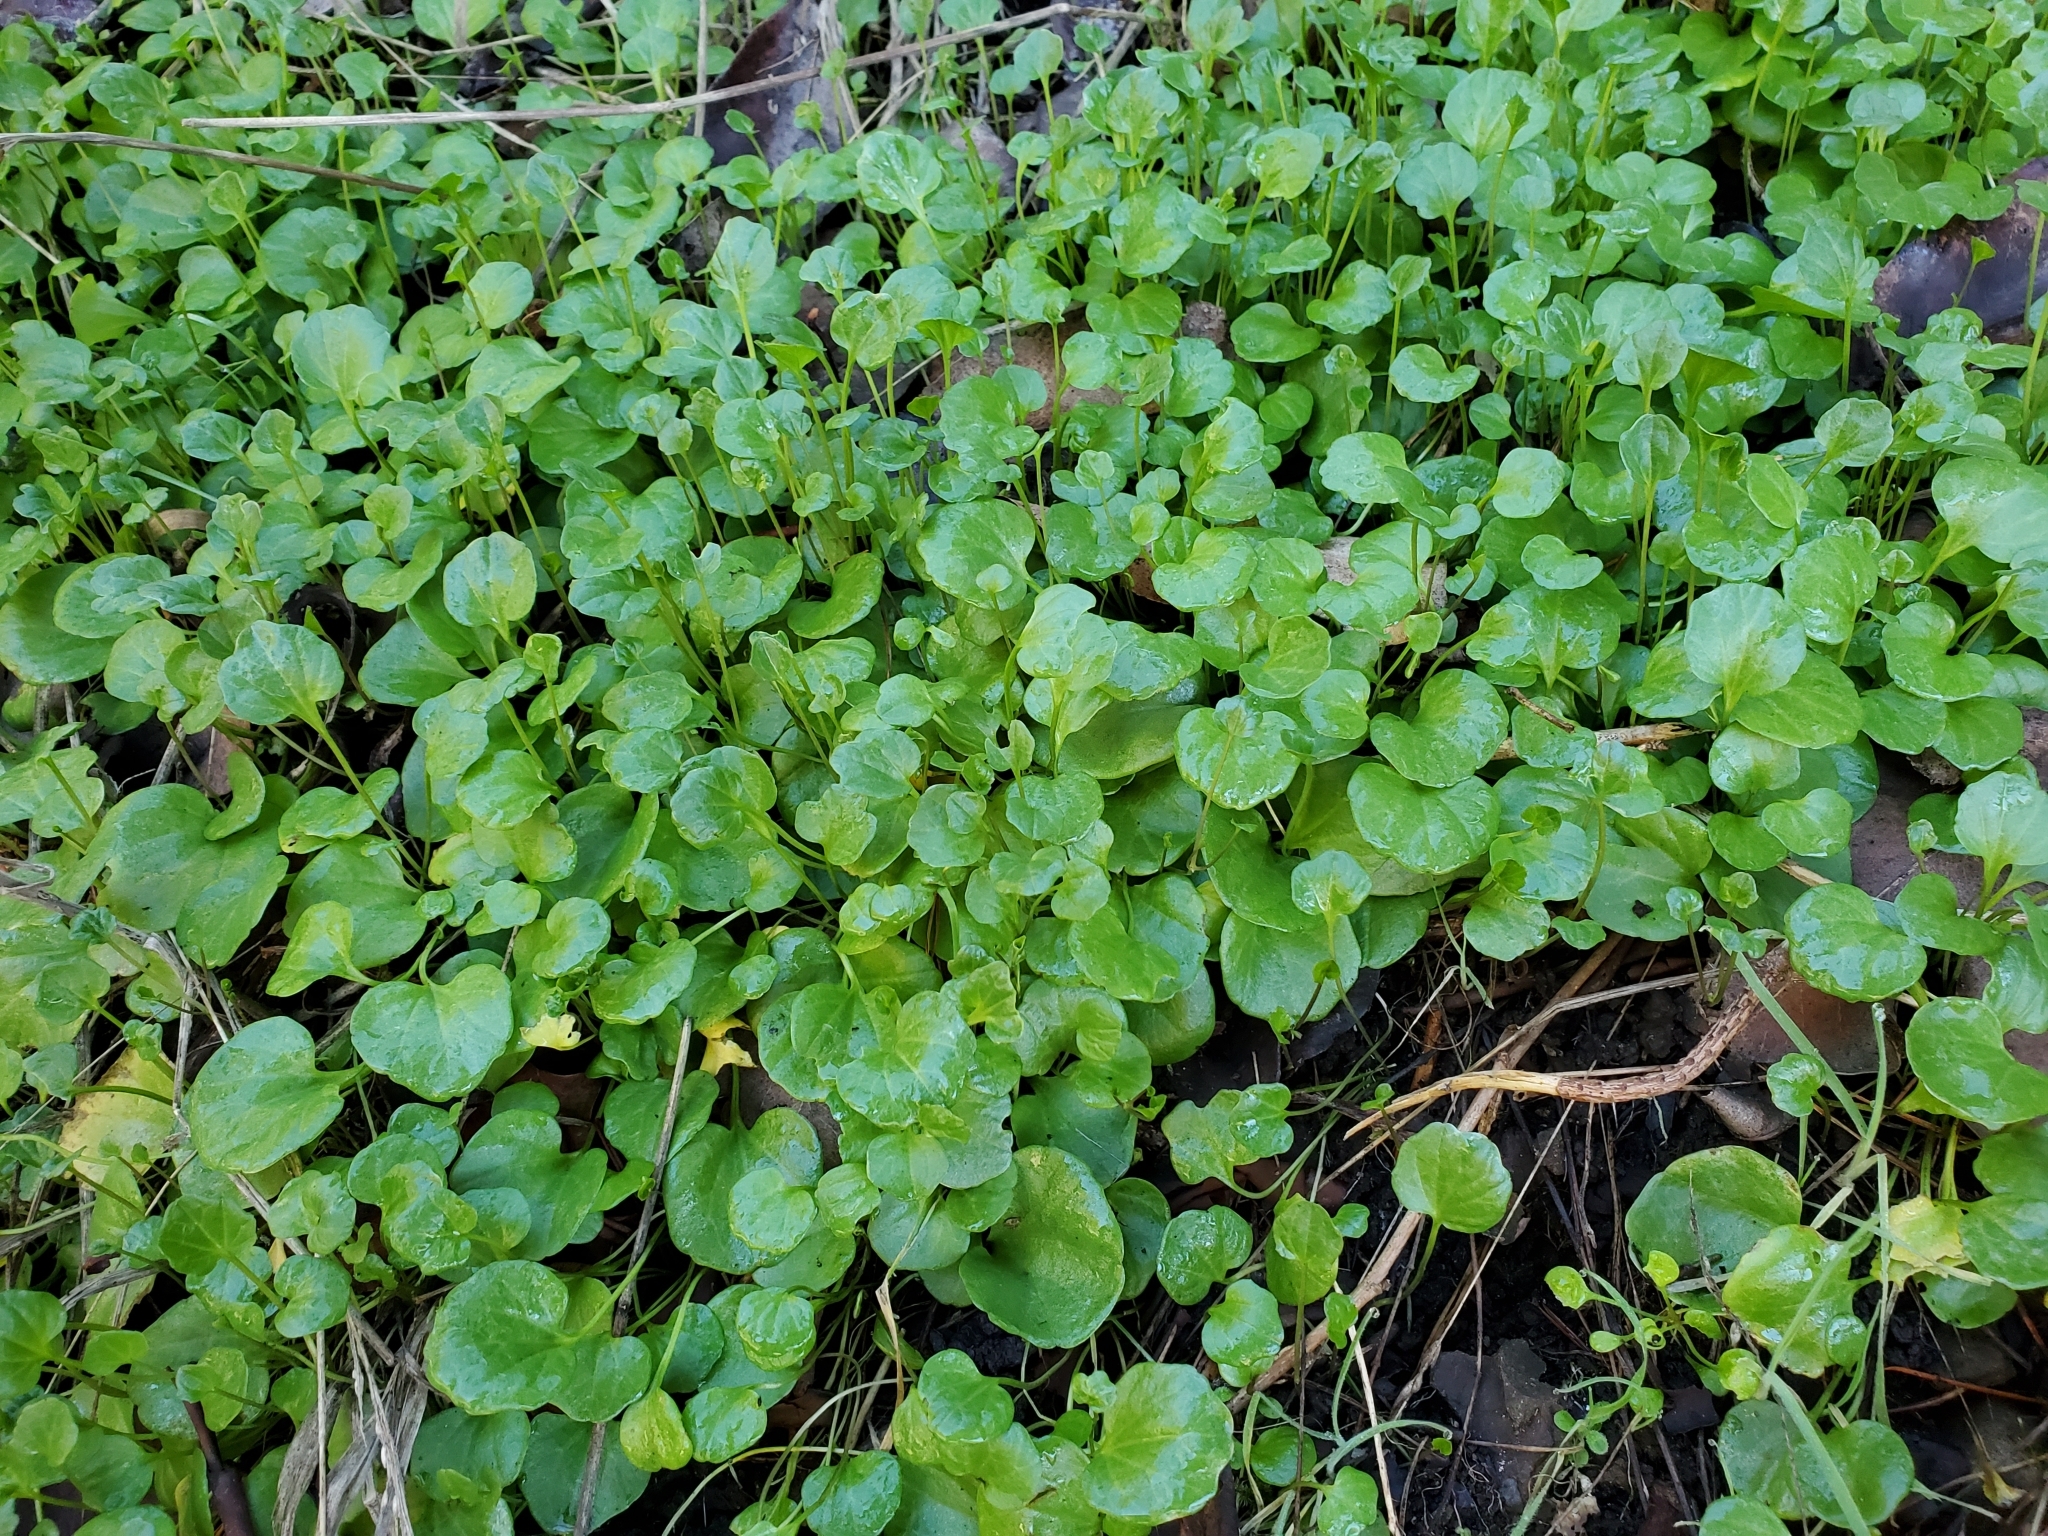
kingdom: Plantae
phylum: Tracheophyta
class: Magnoliopsida
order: Brassicales
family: Brassicaceae
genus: Cardamine
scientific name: Cardamine nuttallii
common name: Nuttall's toothwort
